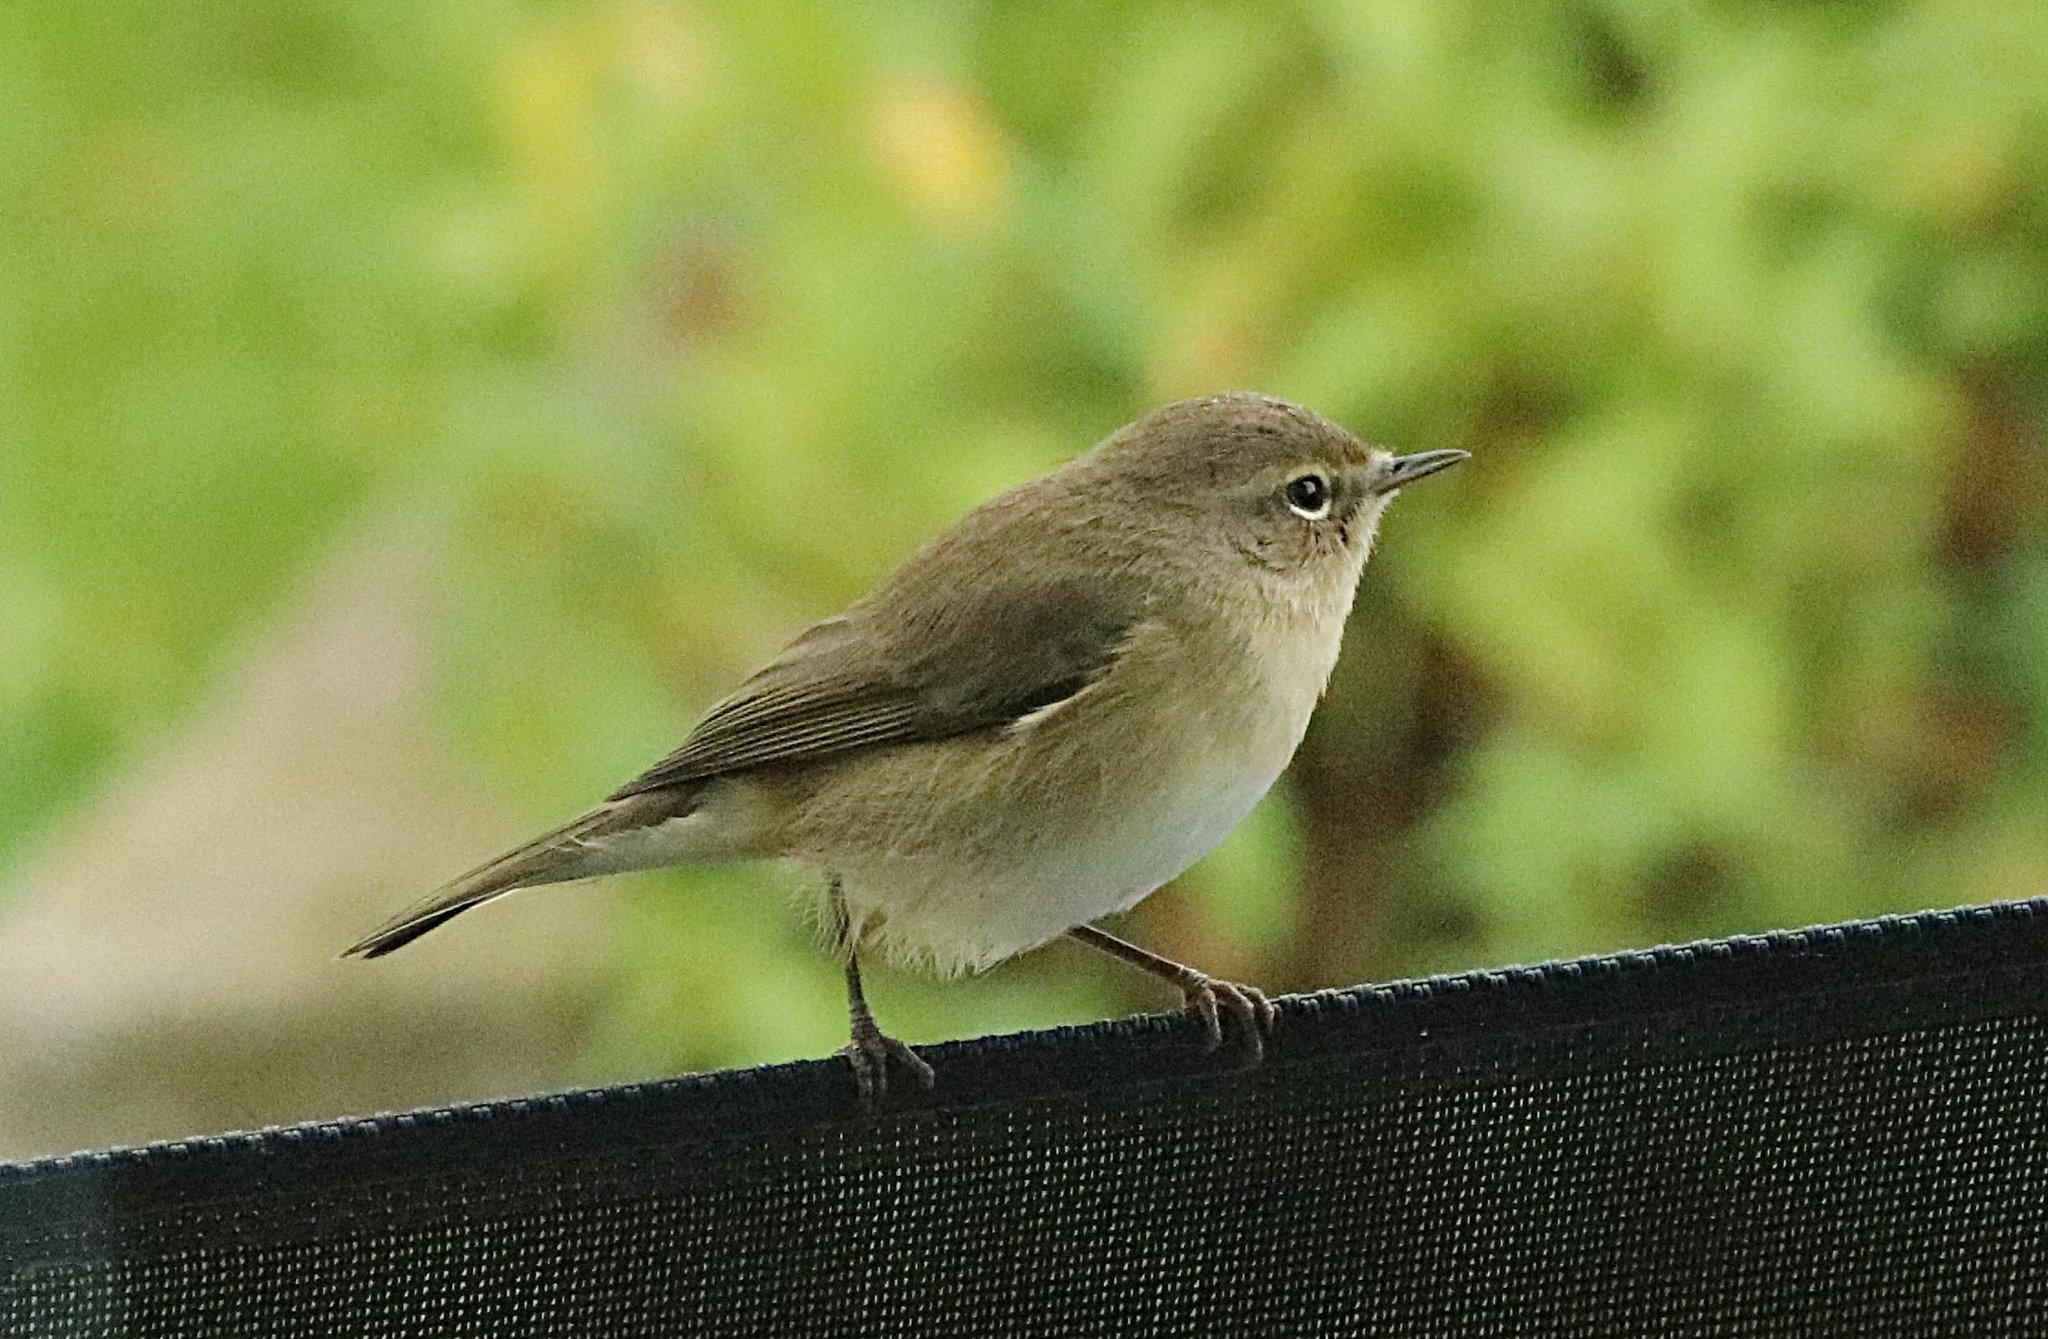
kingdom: Animalia
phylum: Chordata
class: Aves
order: Passeriformes
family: Phylloscopidae
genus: Phylloscopus
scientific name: Phylloscopus collybita
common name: Common chiffchaff
